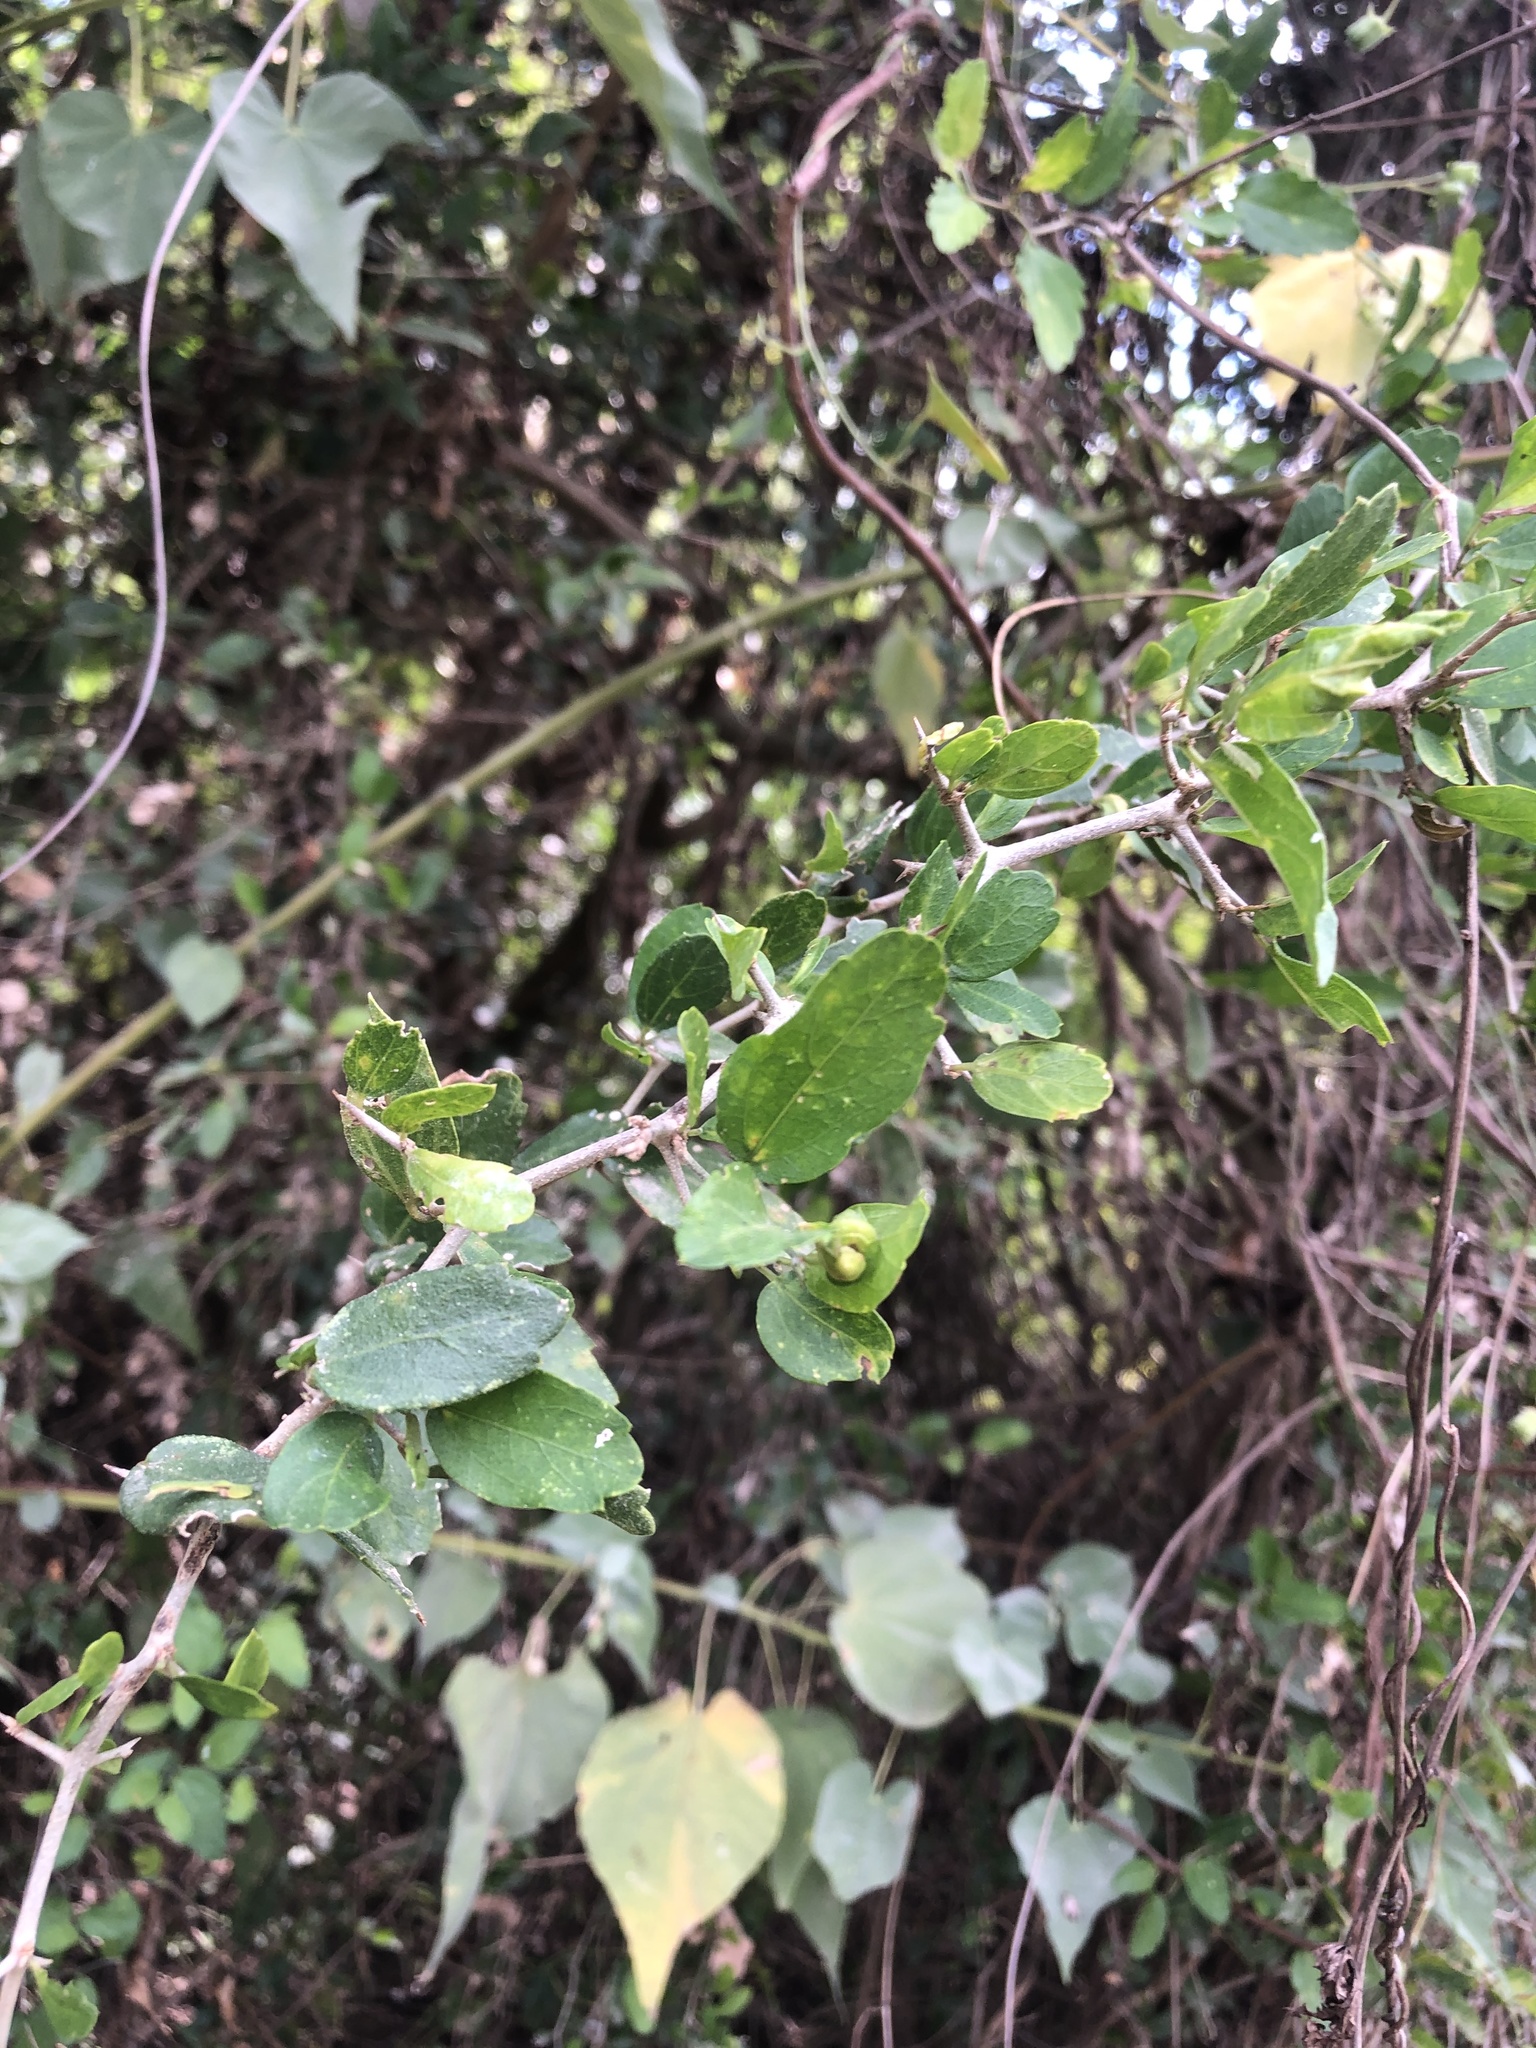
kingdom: Plantae
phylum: Tracheophyta
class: Magnoliopsida
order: Rosales
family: Cannabaceae
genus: Celtis
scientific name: Celtis pallida
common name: Desert hackberry
